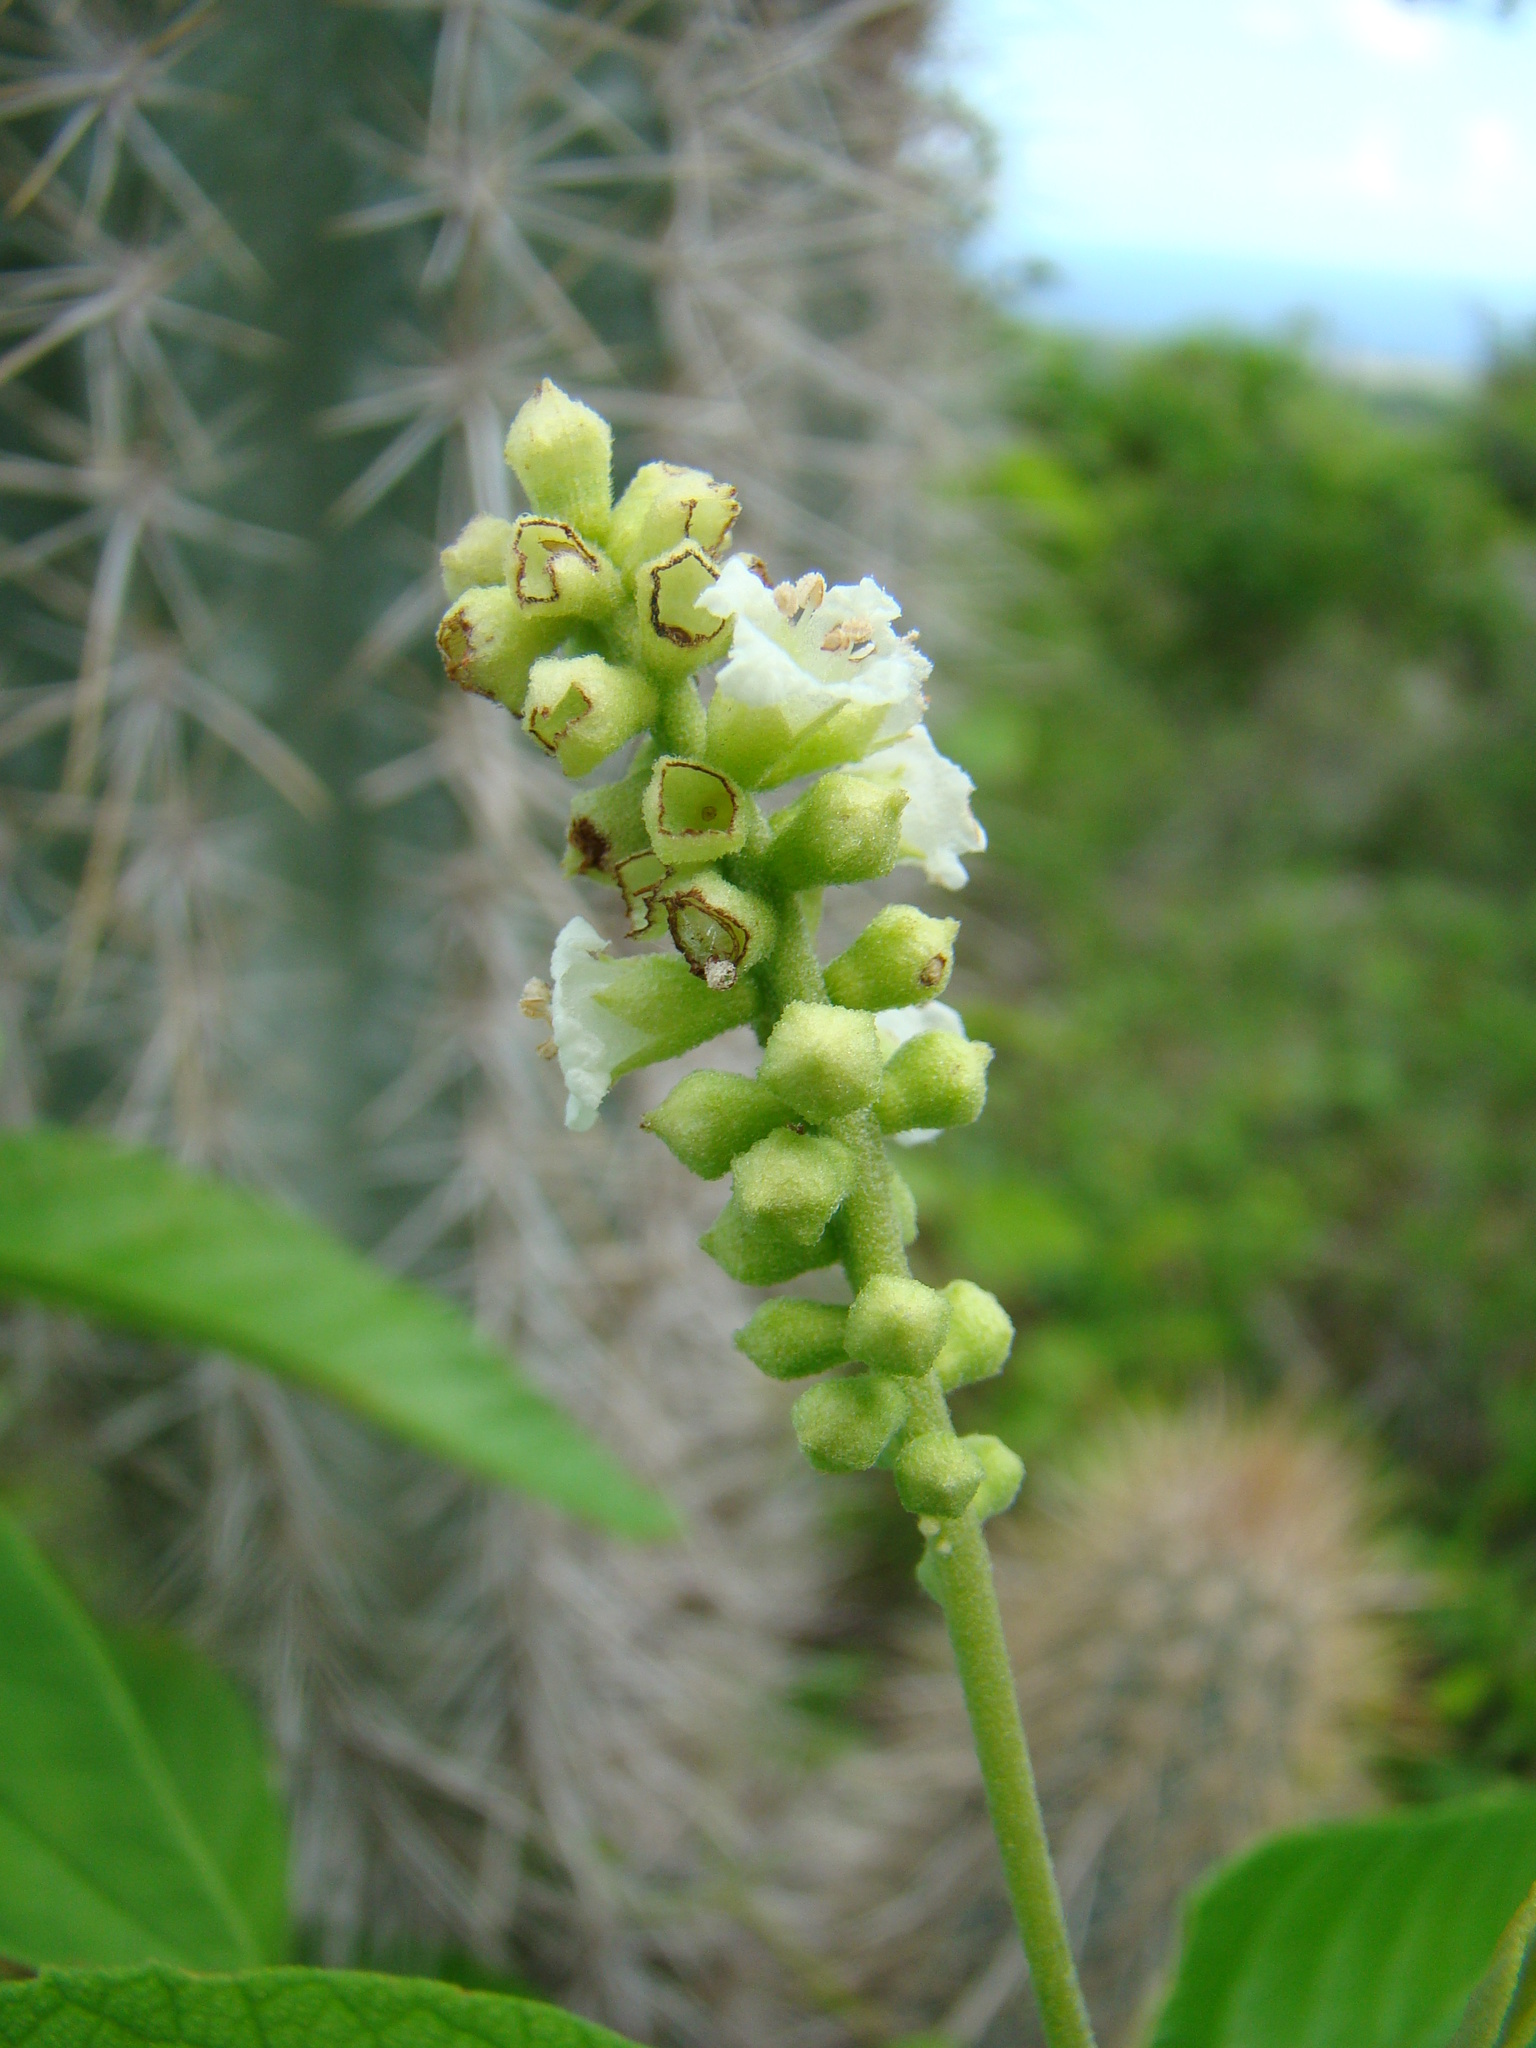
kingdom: Plantae
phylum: Tracheophyta
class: Magnoliopsida
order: Boraginales
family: Cordiaceae
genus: Varronia
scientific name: Varronia curassavica
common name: Black sage
